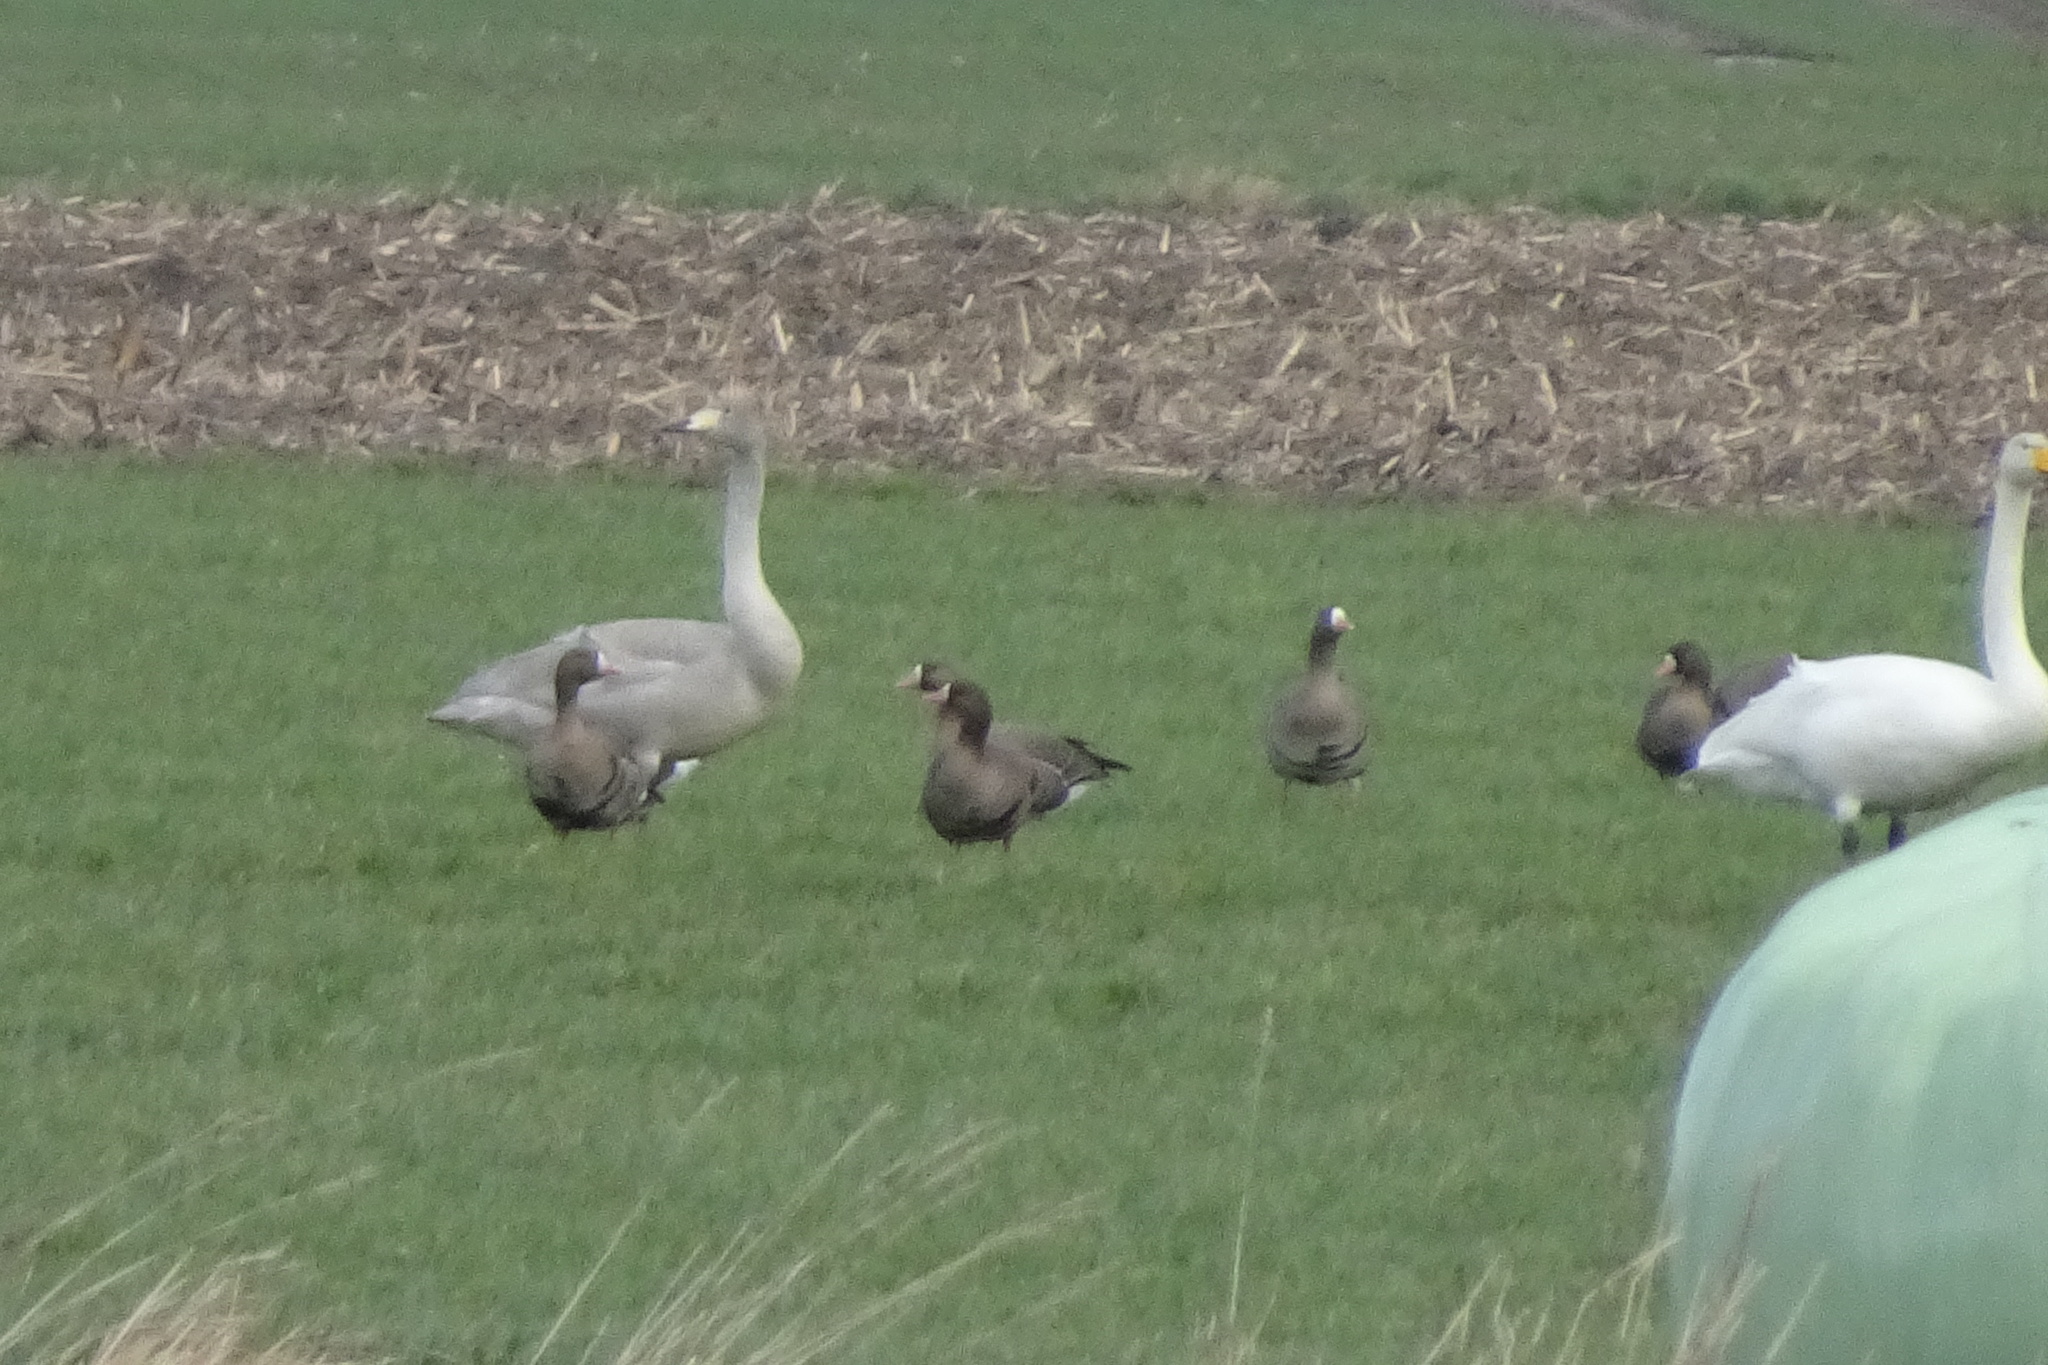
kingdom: Animalia
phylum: Chordata
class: Aves
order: Anseriformes
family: Anatidae
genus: Anser
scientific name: Anser albifrons
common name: Greater white-fronted goose
